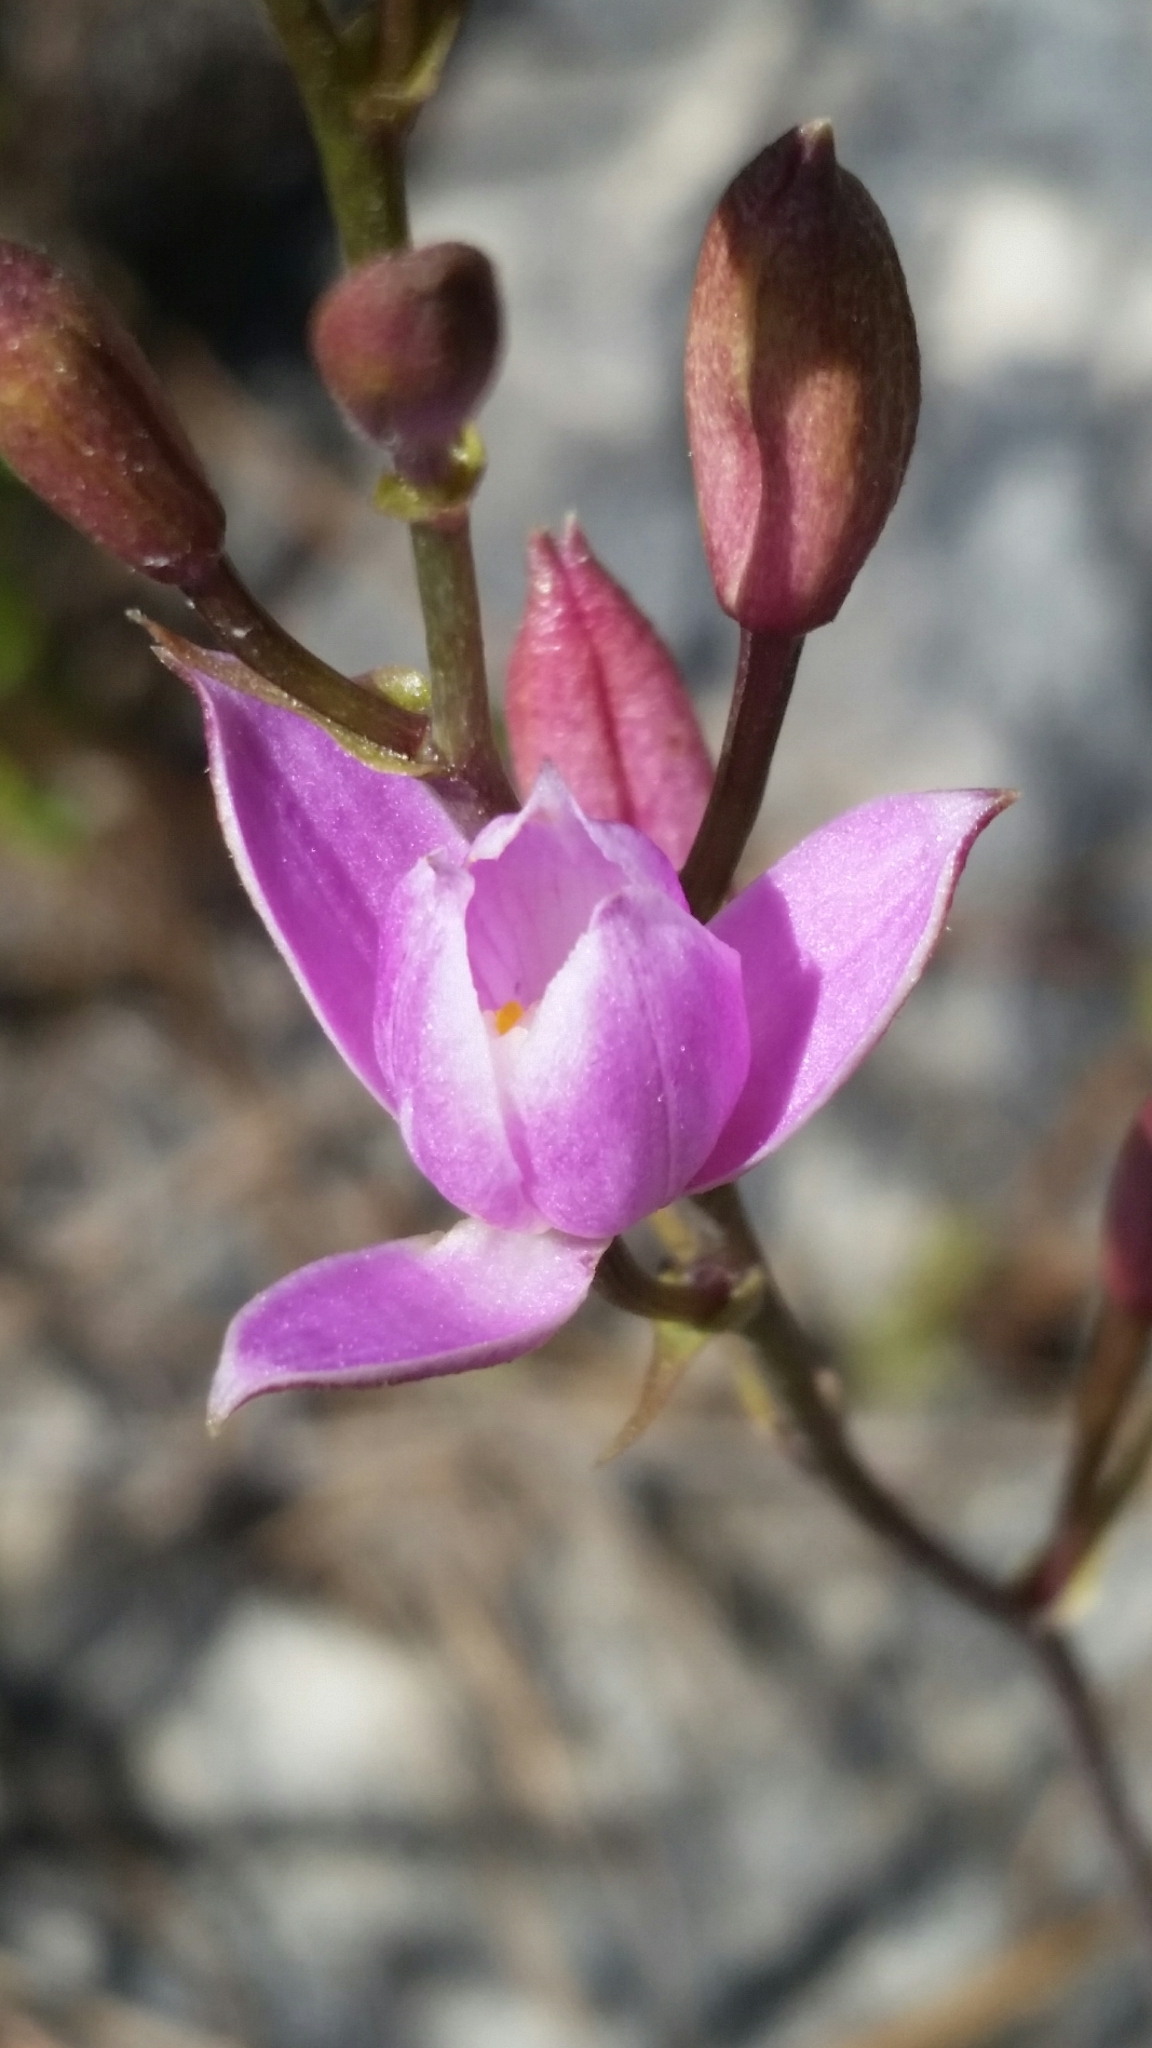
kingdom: Plantae
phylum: Tracheophyta
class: Liliopsida
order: Asparagales
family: Orchidaceae
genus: Bletia
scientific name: Bletia purpurea
